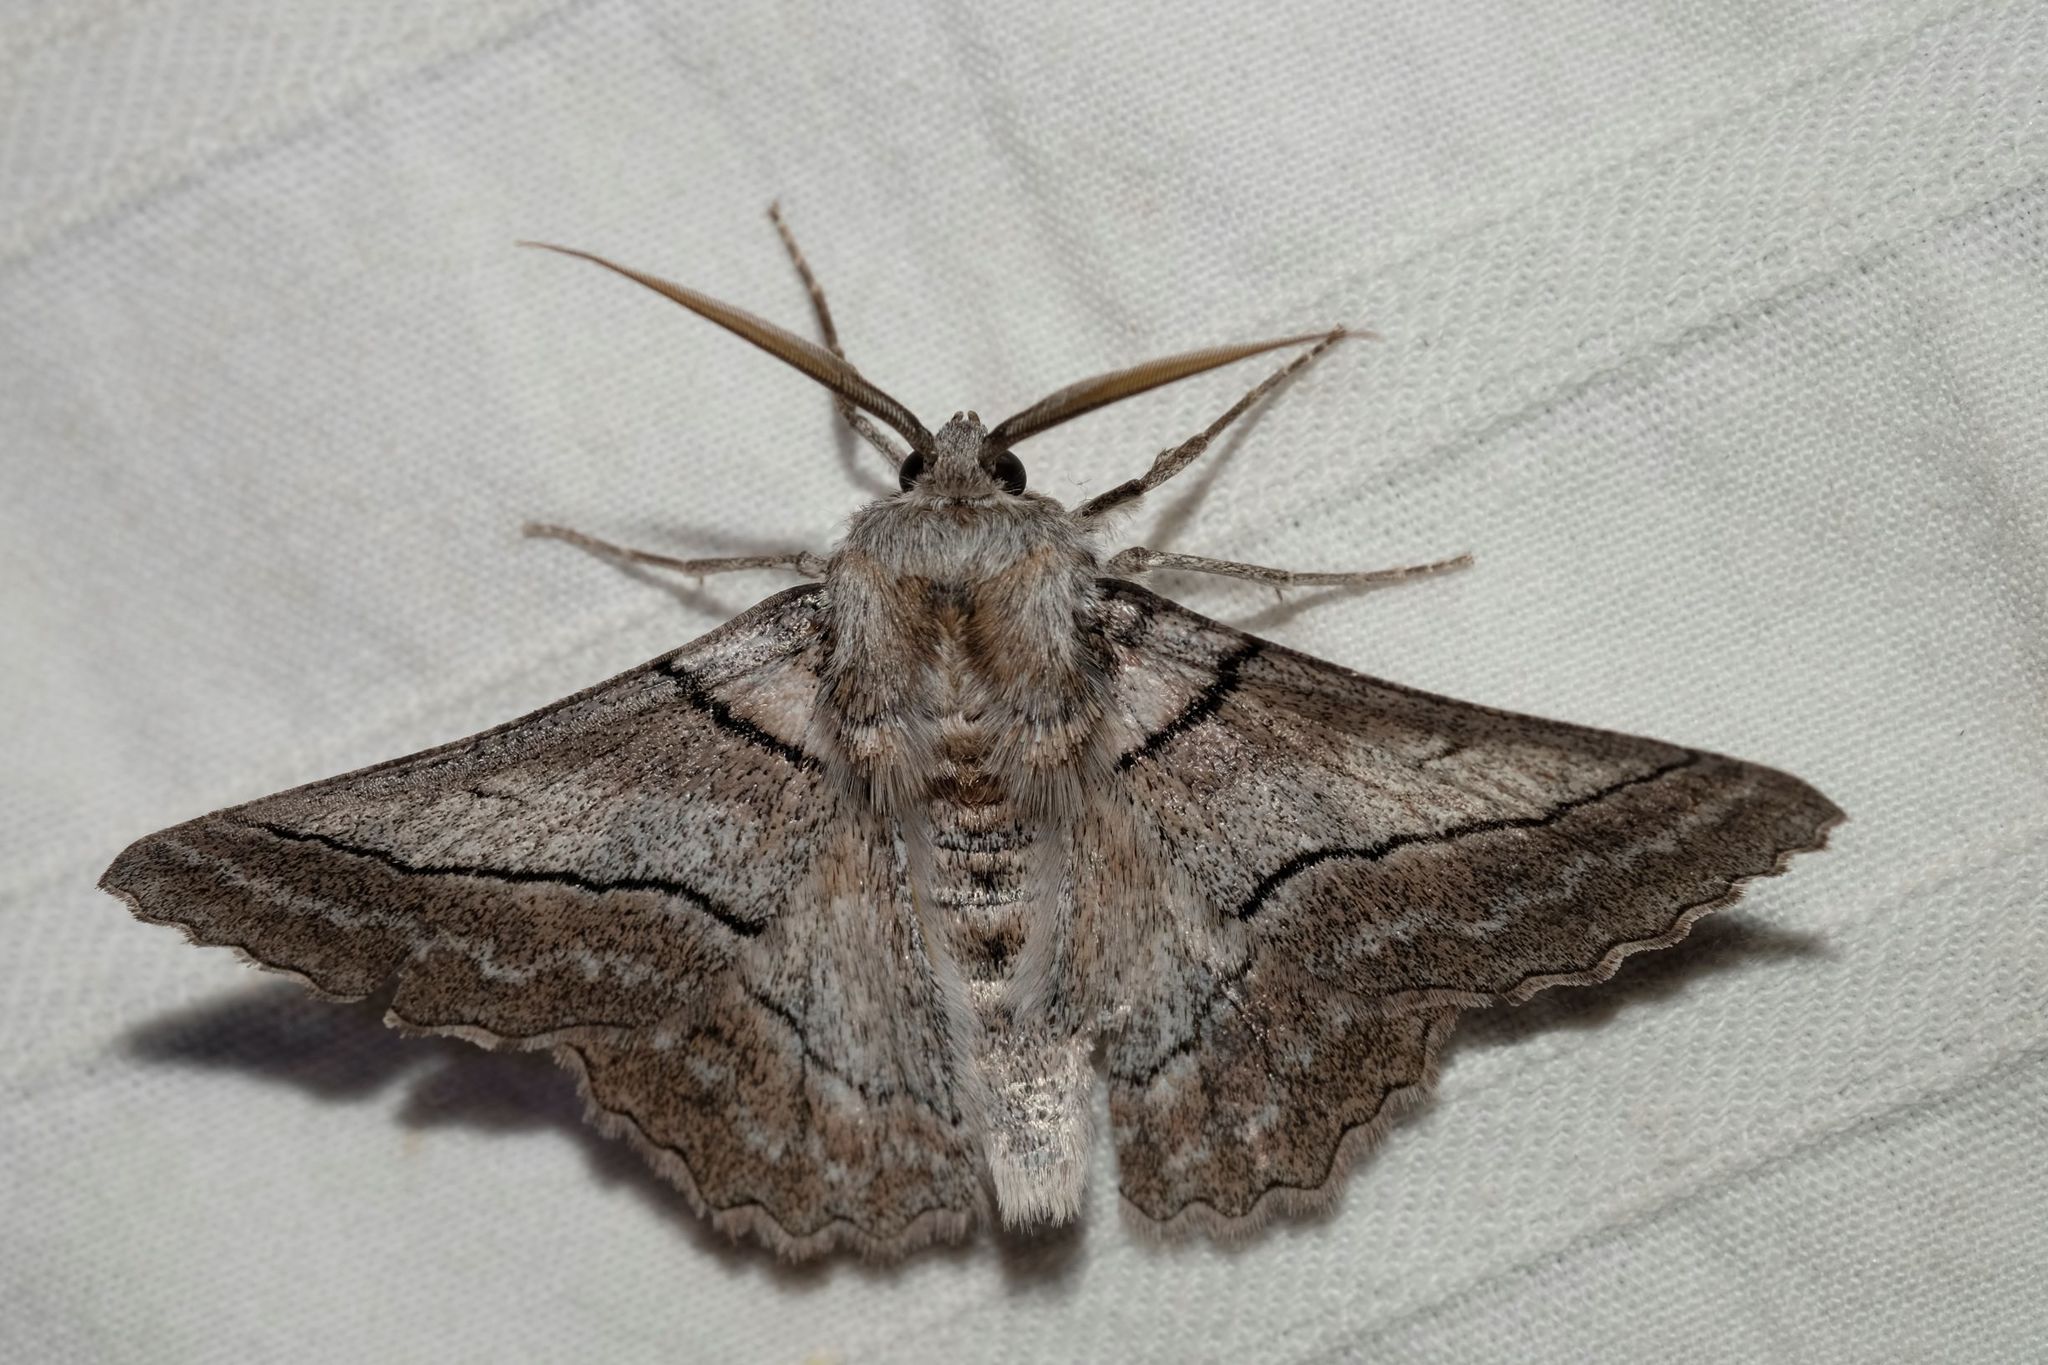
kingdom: Animalia
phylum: Arthropoda
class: Insecta
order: Lepidoptera
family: Geometridae
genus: Hypobapta
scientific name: Hypobapta tachyhalotaria
